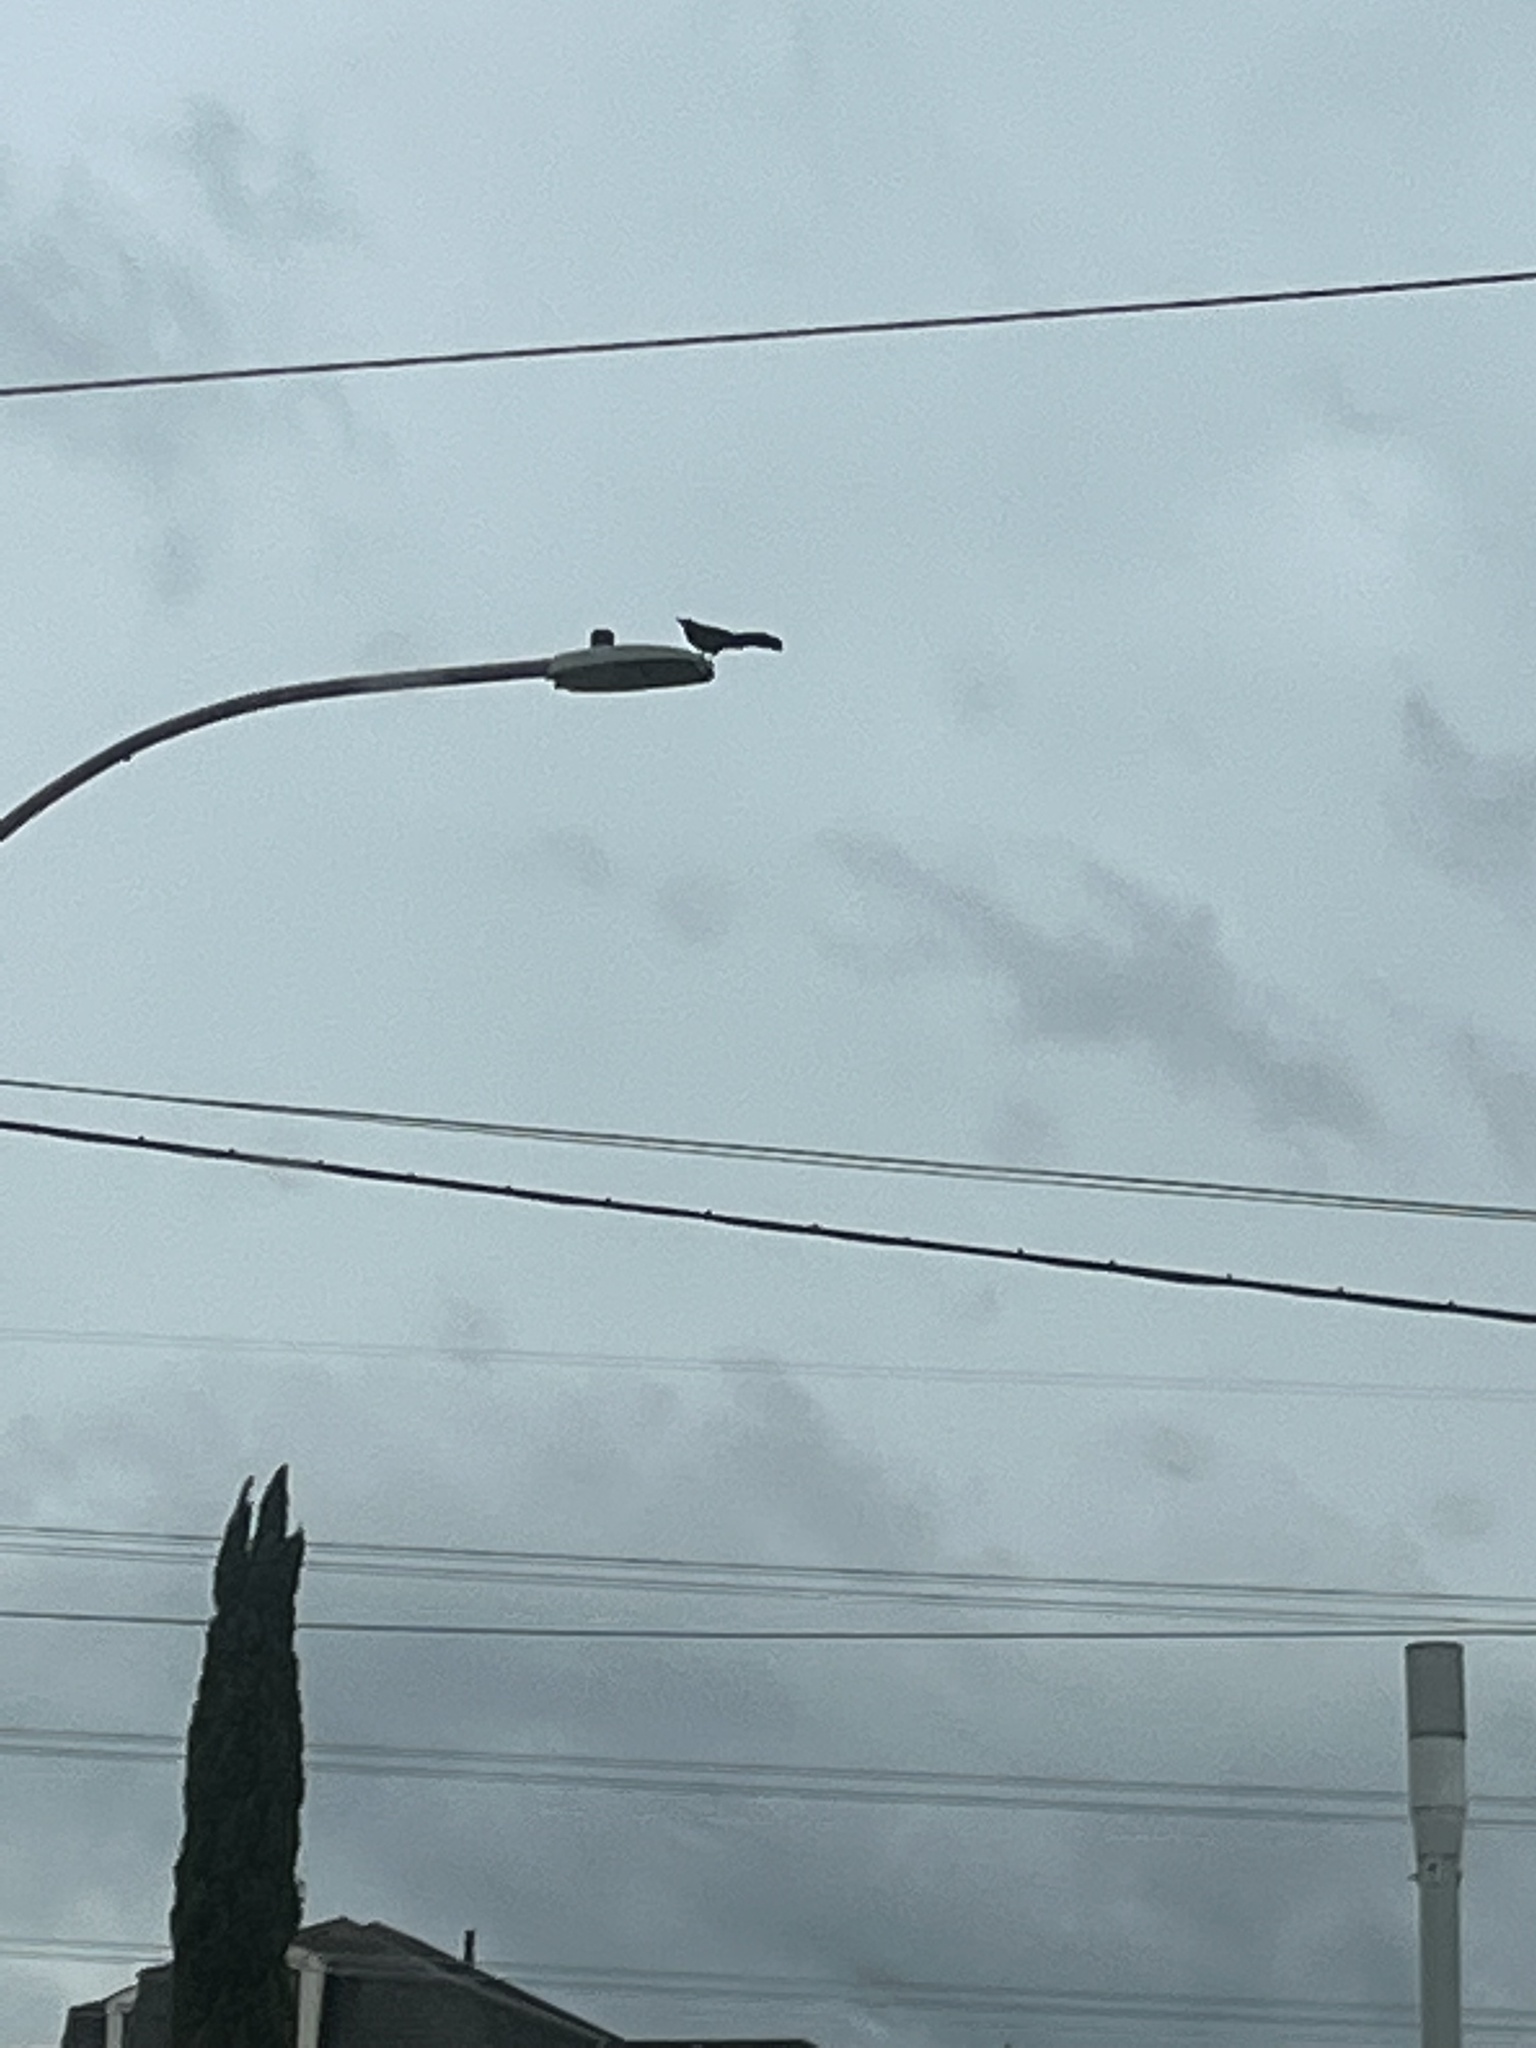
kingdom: Animalia
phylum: Chordata
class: Aves
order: Passeriformes
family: Icteridae
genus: Quiscalus
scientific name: Quiscalus mexicanus
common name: Great-tailed grackle
